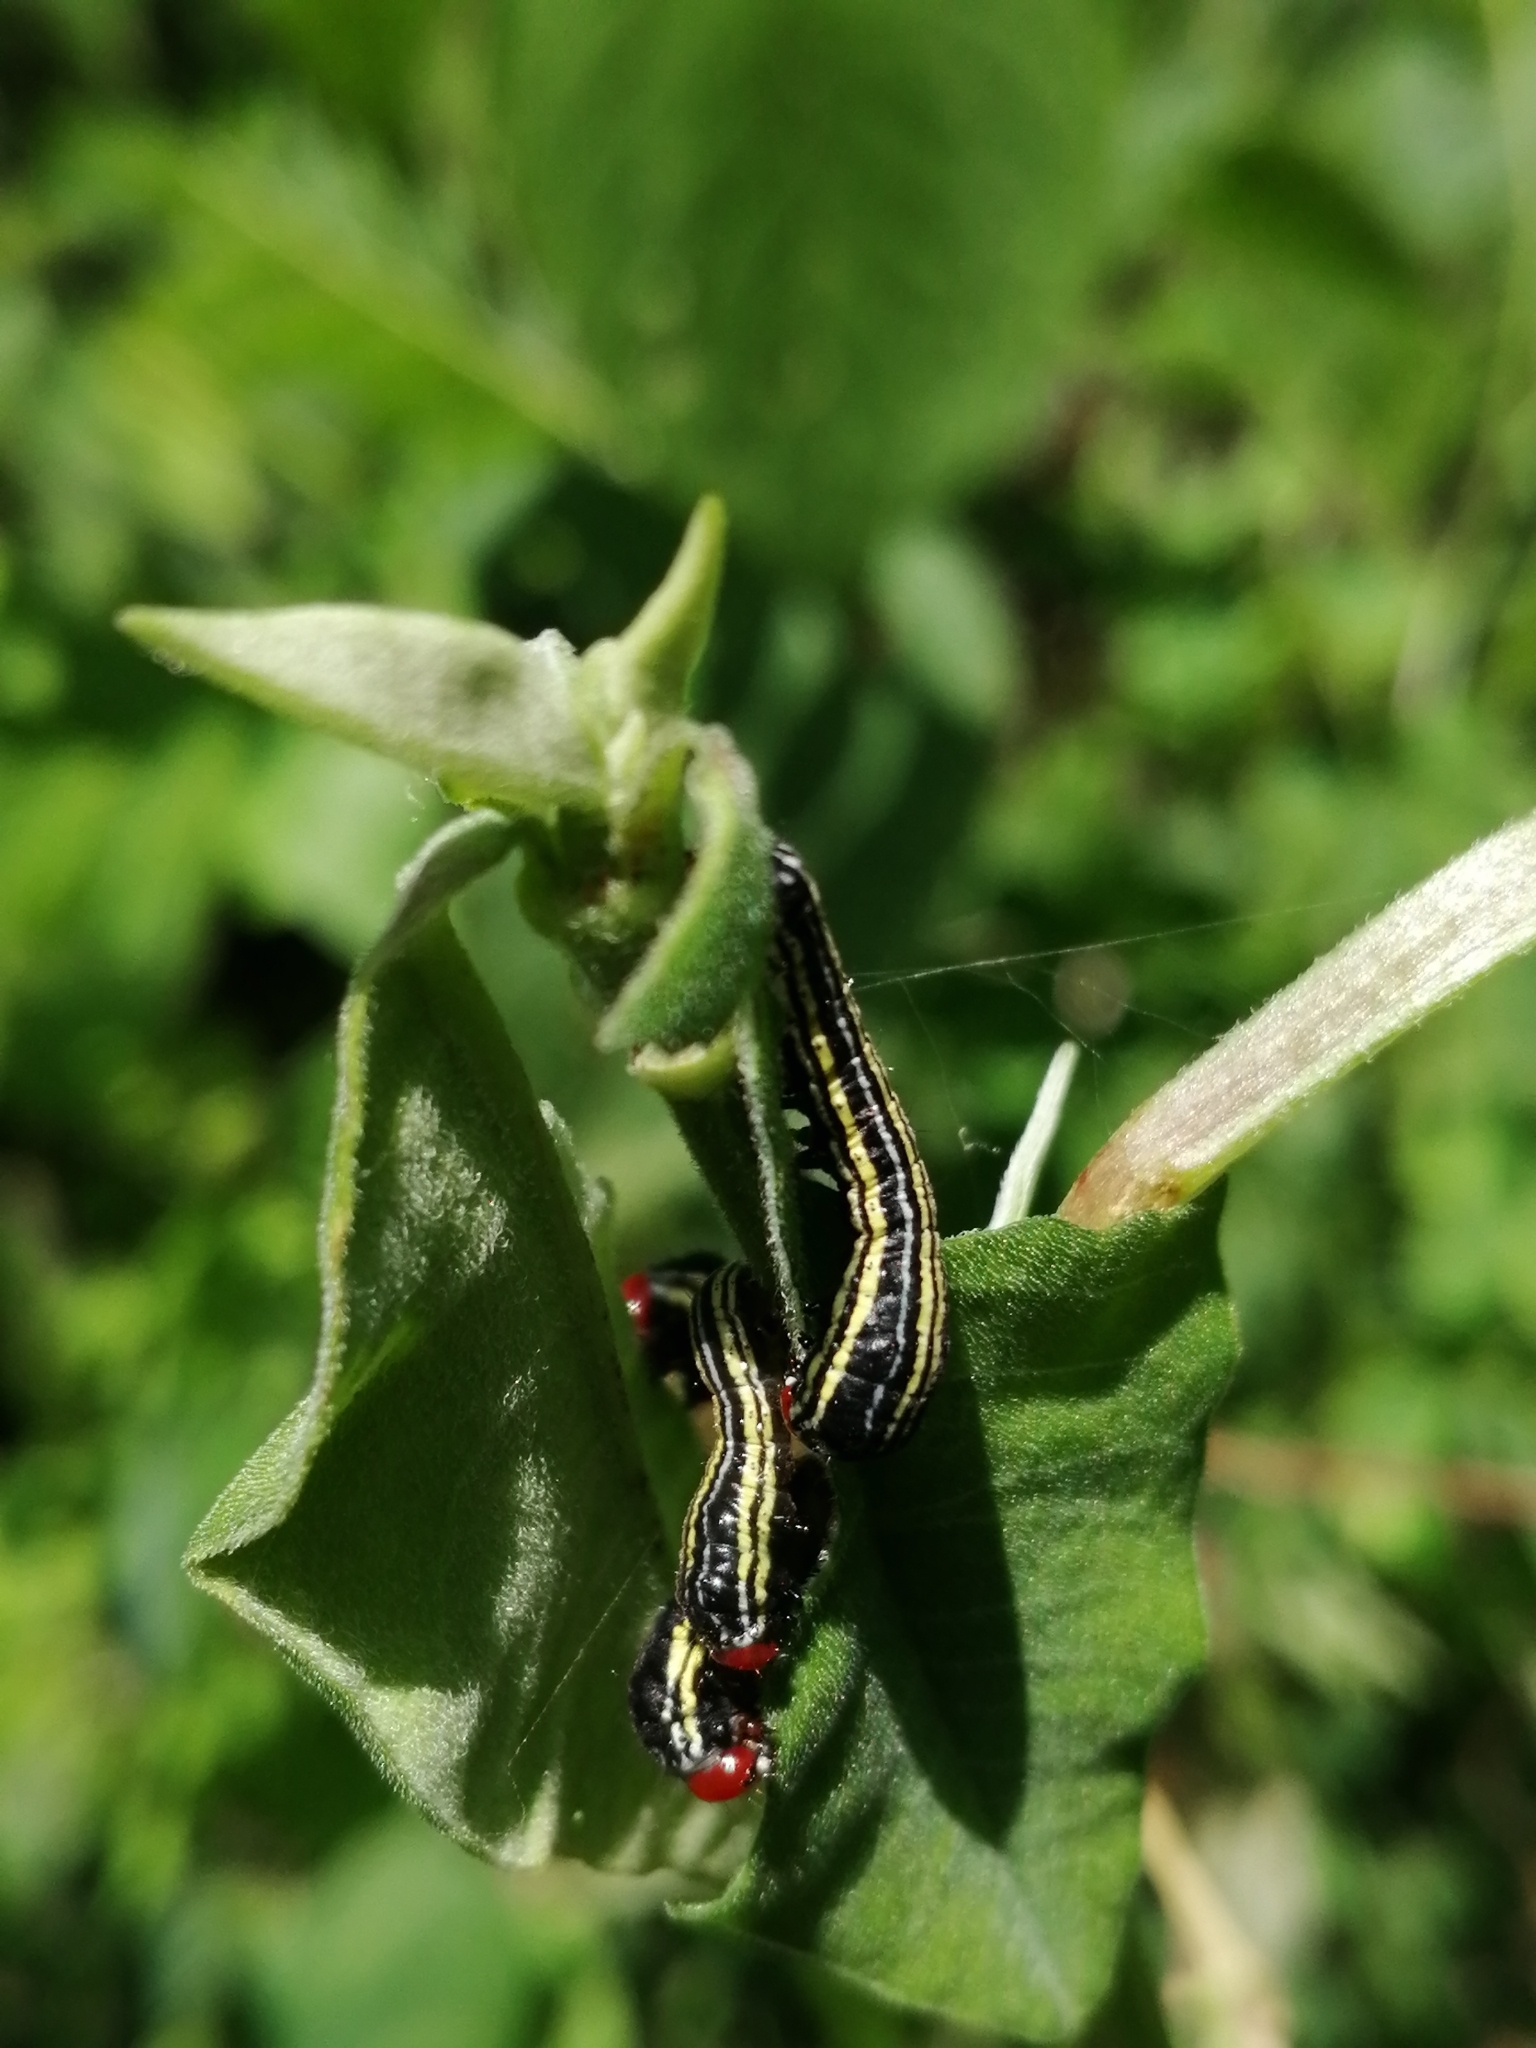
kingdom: Animalia
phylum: Arthropoda
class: Insecta
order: Lepidoptera
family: Noctuidae
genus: Spodoptera
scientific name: Spodoptera ornithogalli
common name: Yellow-striped armyworm
